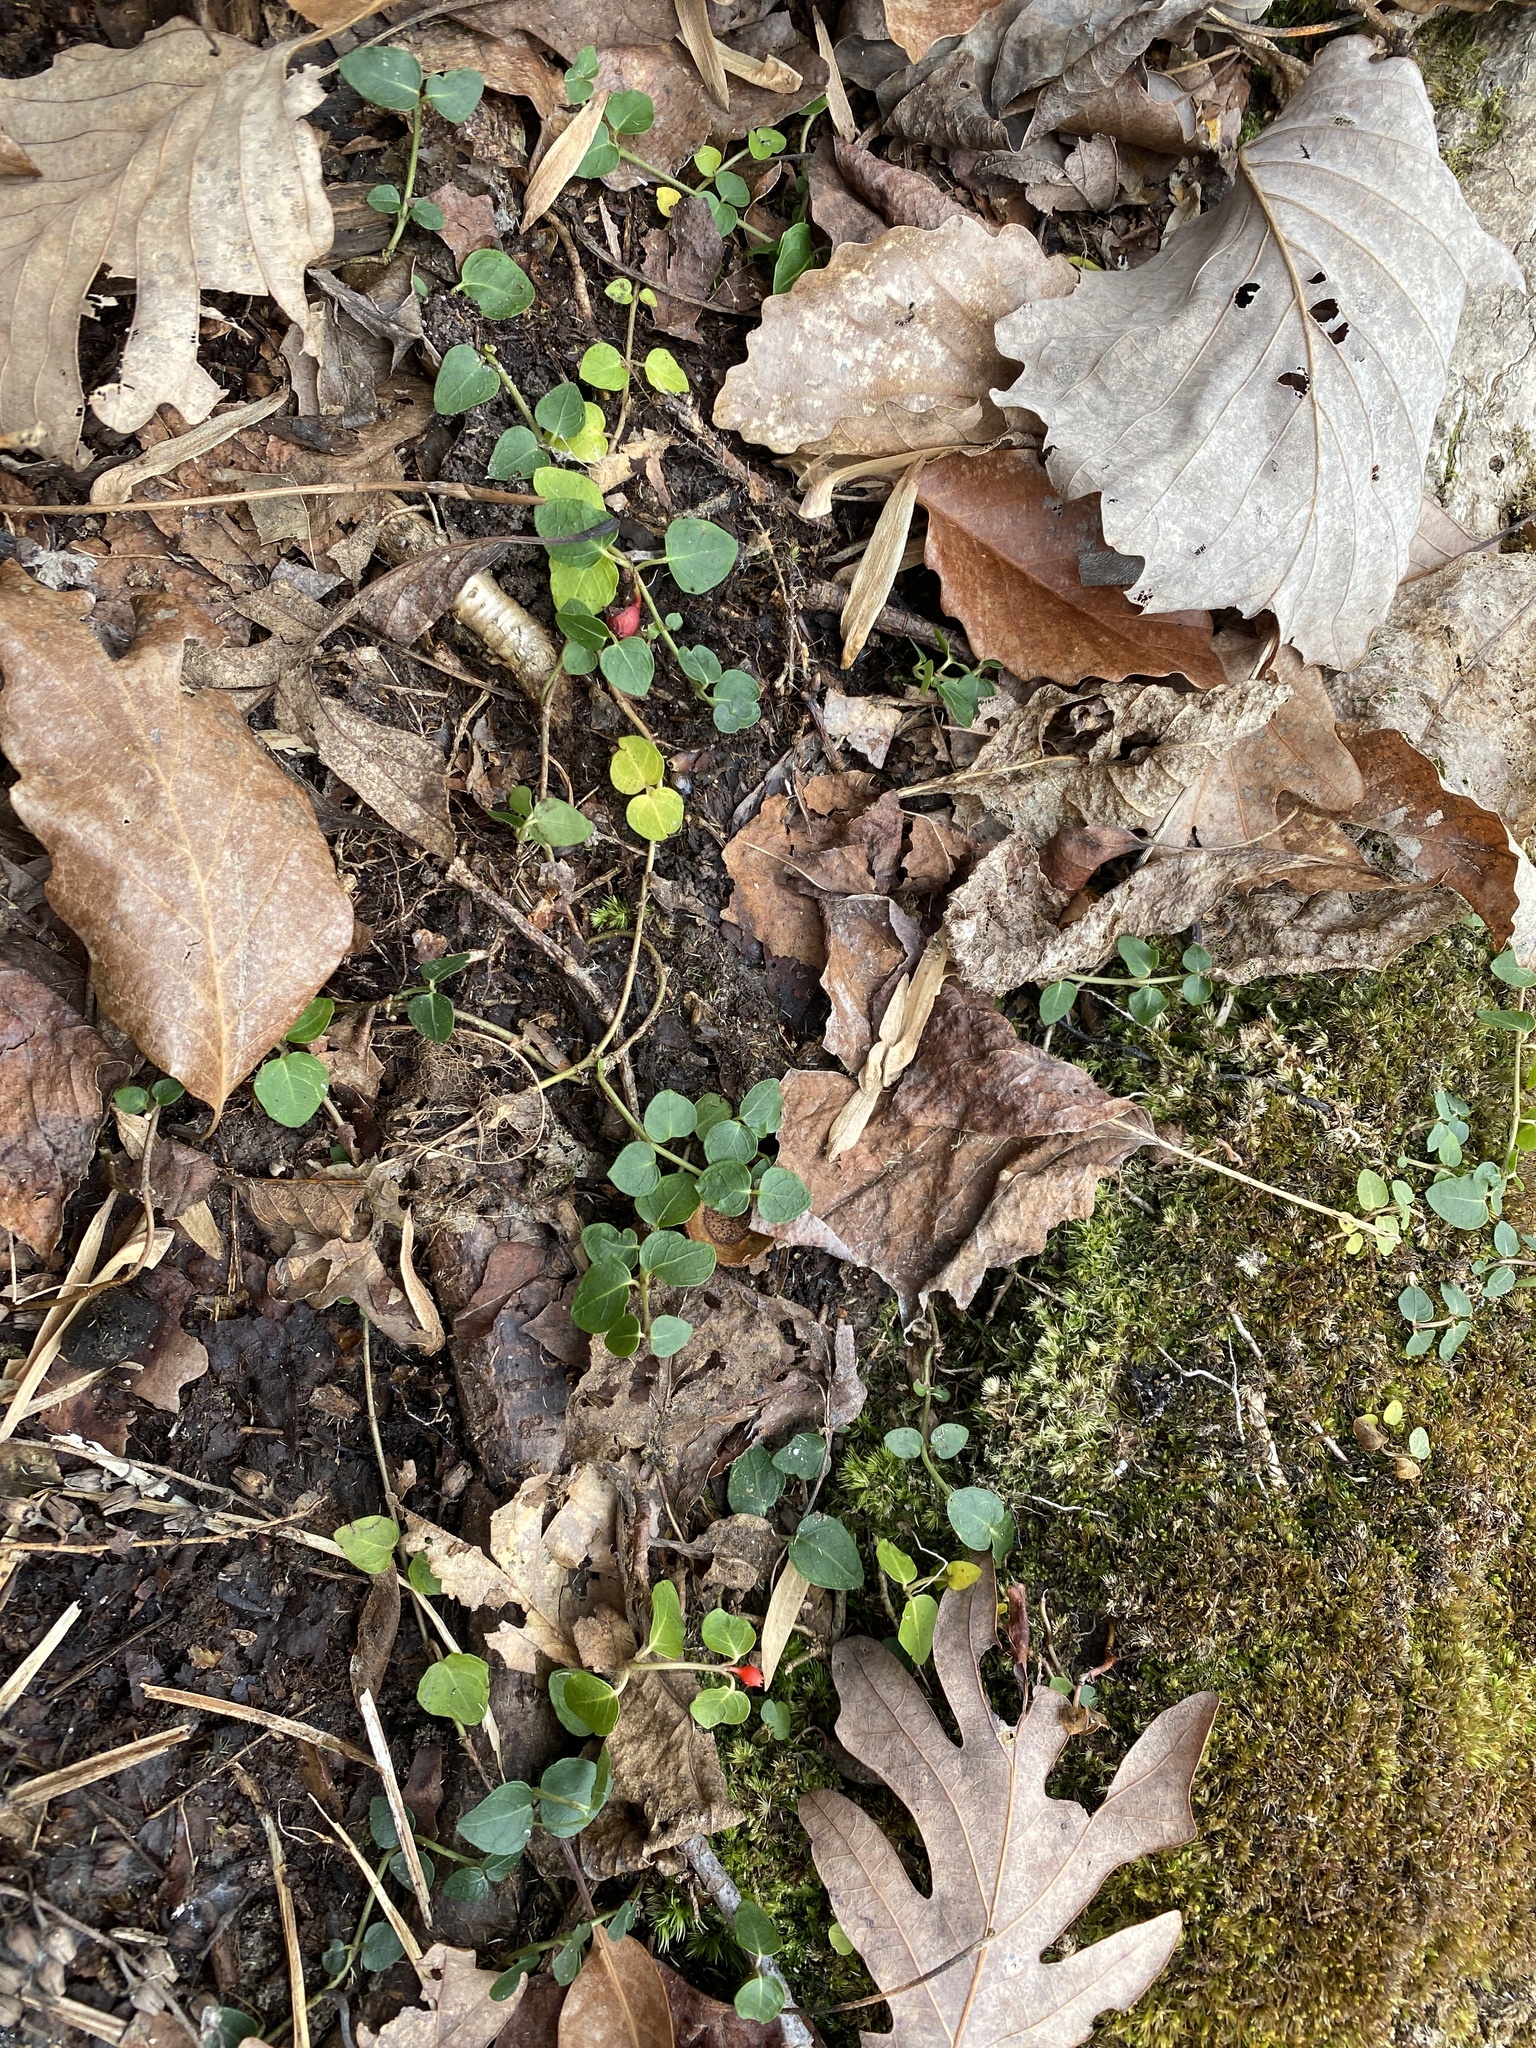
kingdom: Plantae
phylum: Tracheophyta
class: Magnoliopsida
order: Gentianales
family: Rubiaceae
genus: Mitchella
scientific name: Mitchella repens
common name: Partridge-berry
